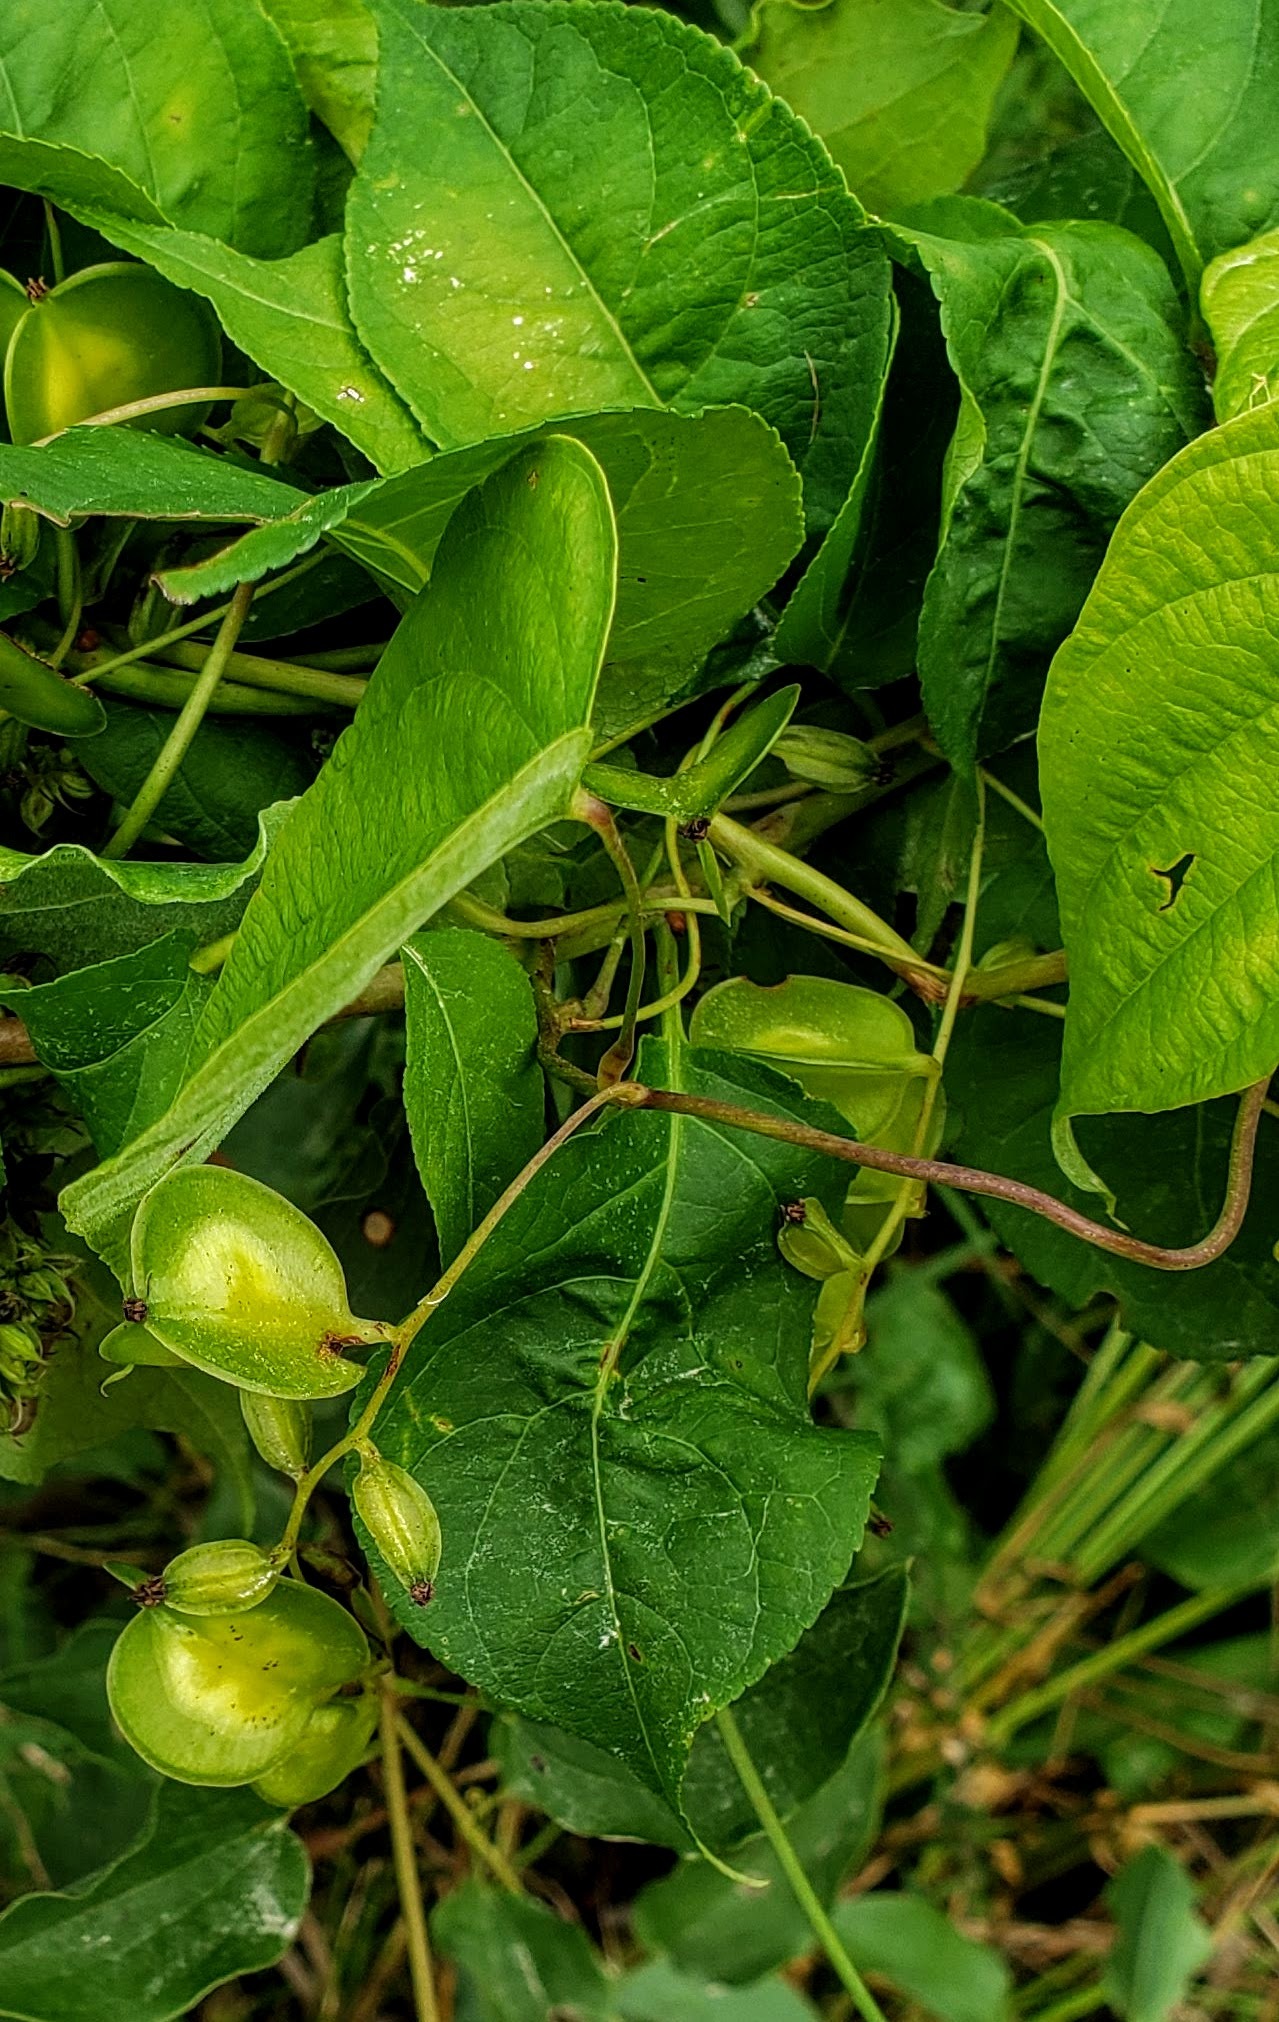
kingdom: Plantae
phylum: Tracheophyta
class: Liliopsida
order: Dioscoreales
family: Dioscoreaceae
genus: Dioscorea
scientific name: Dioscorea villosa
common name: Wild yam
